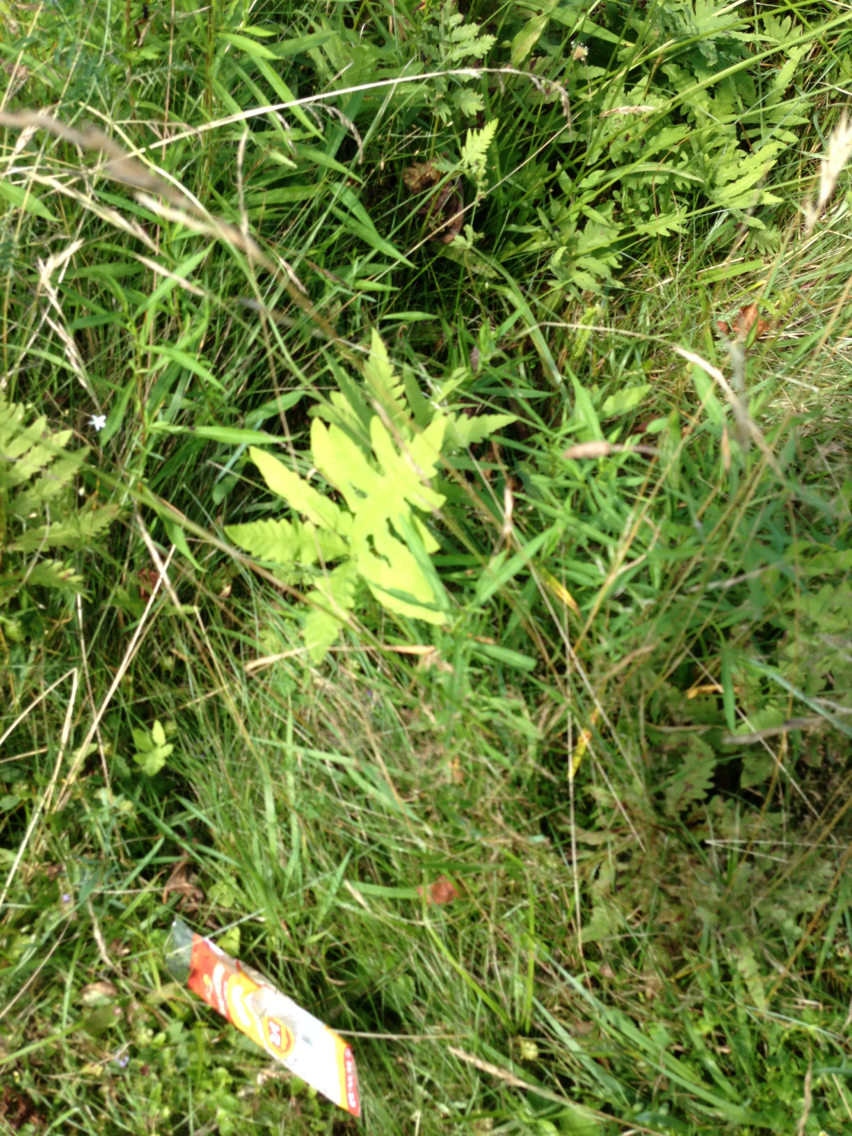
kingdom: Plantae
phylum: Tracheophyta
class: Polypodiopsida
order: Polypodiales
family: Onocleaceae
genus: Onoclea
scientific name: Onoclea sensibilis
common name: Sensitive fern
